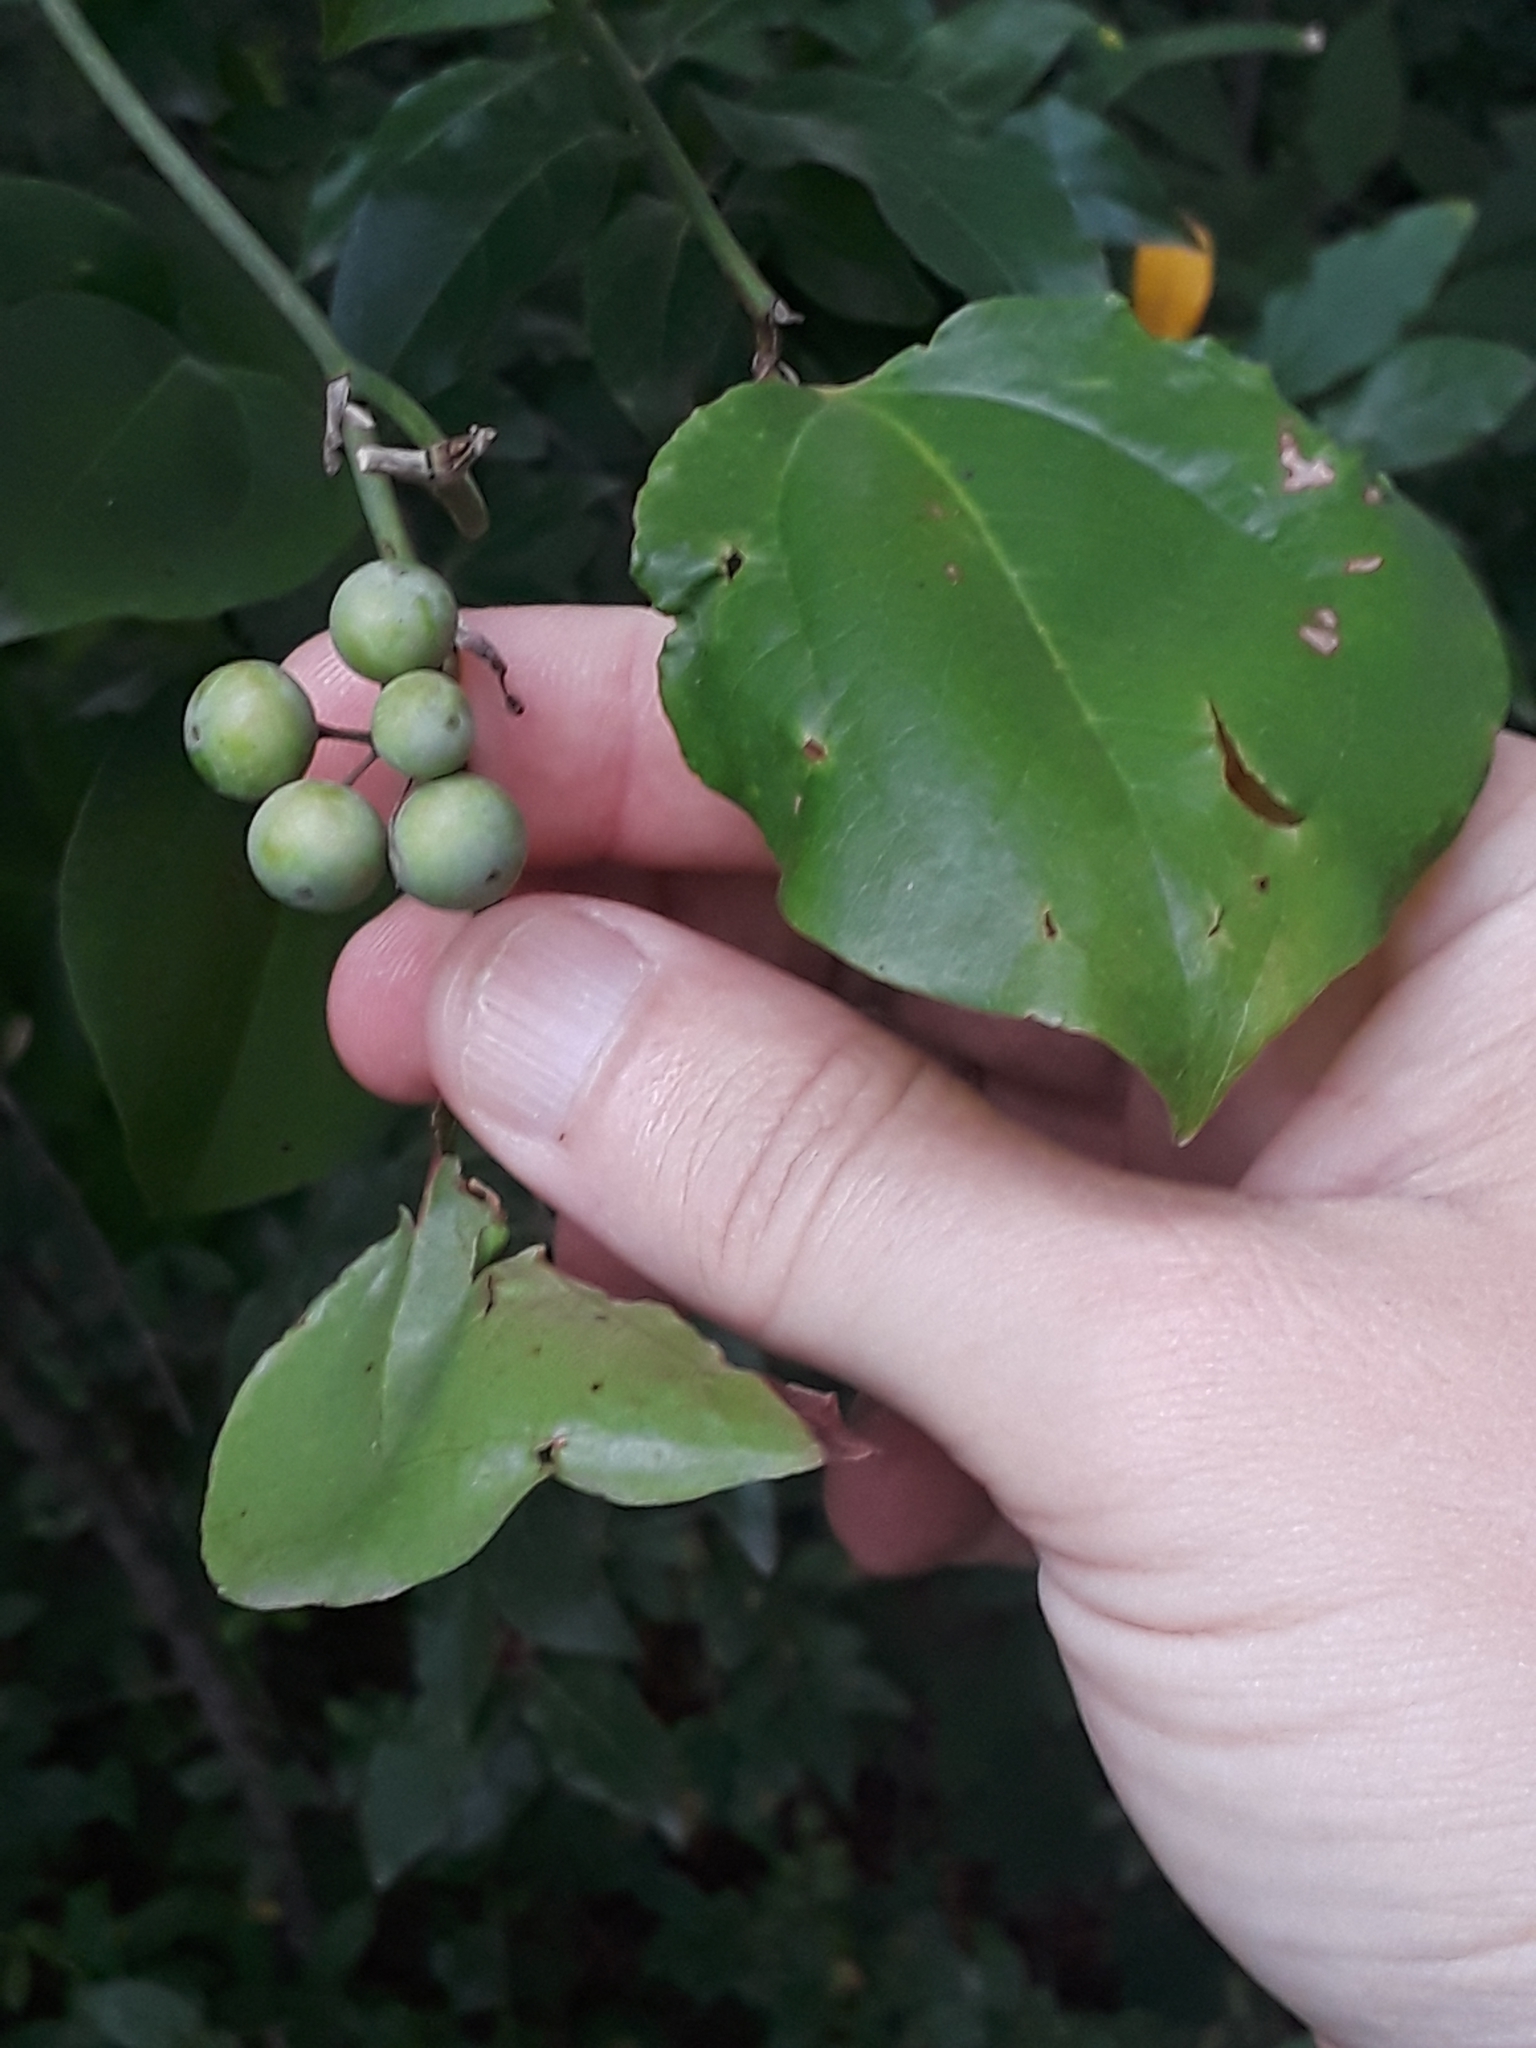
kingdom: Plantae
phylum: Tracheophyta
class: Liliopsida
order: Liliales
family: Smilacaceae
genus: Smilax
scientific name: Smilax rotundifolia
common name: Bullbriar
